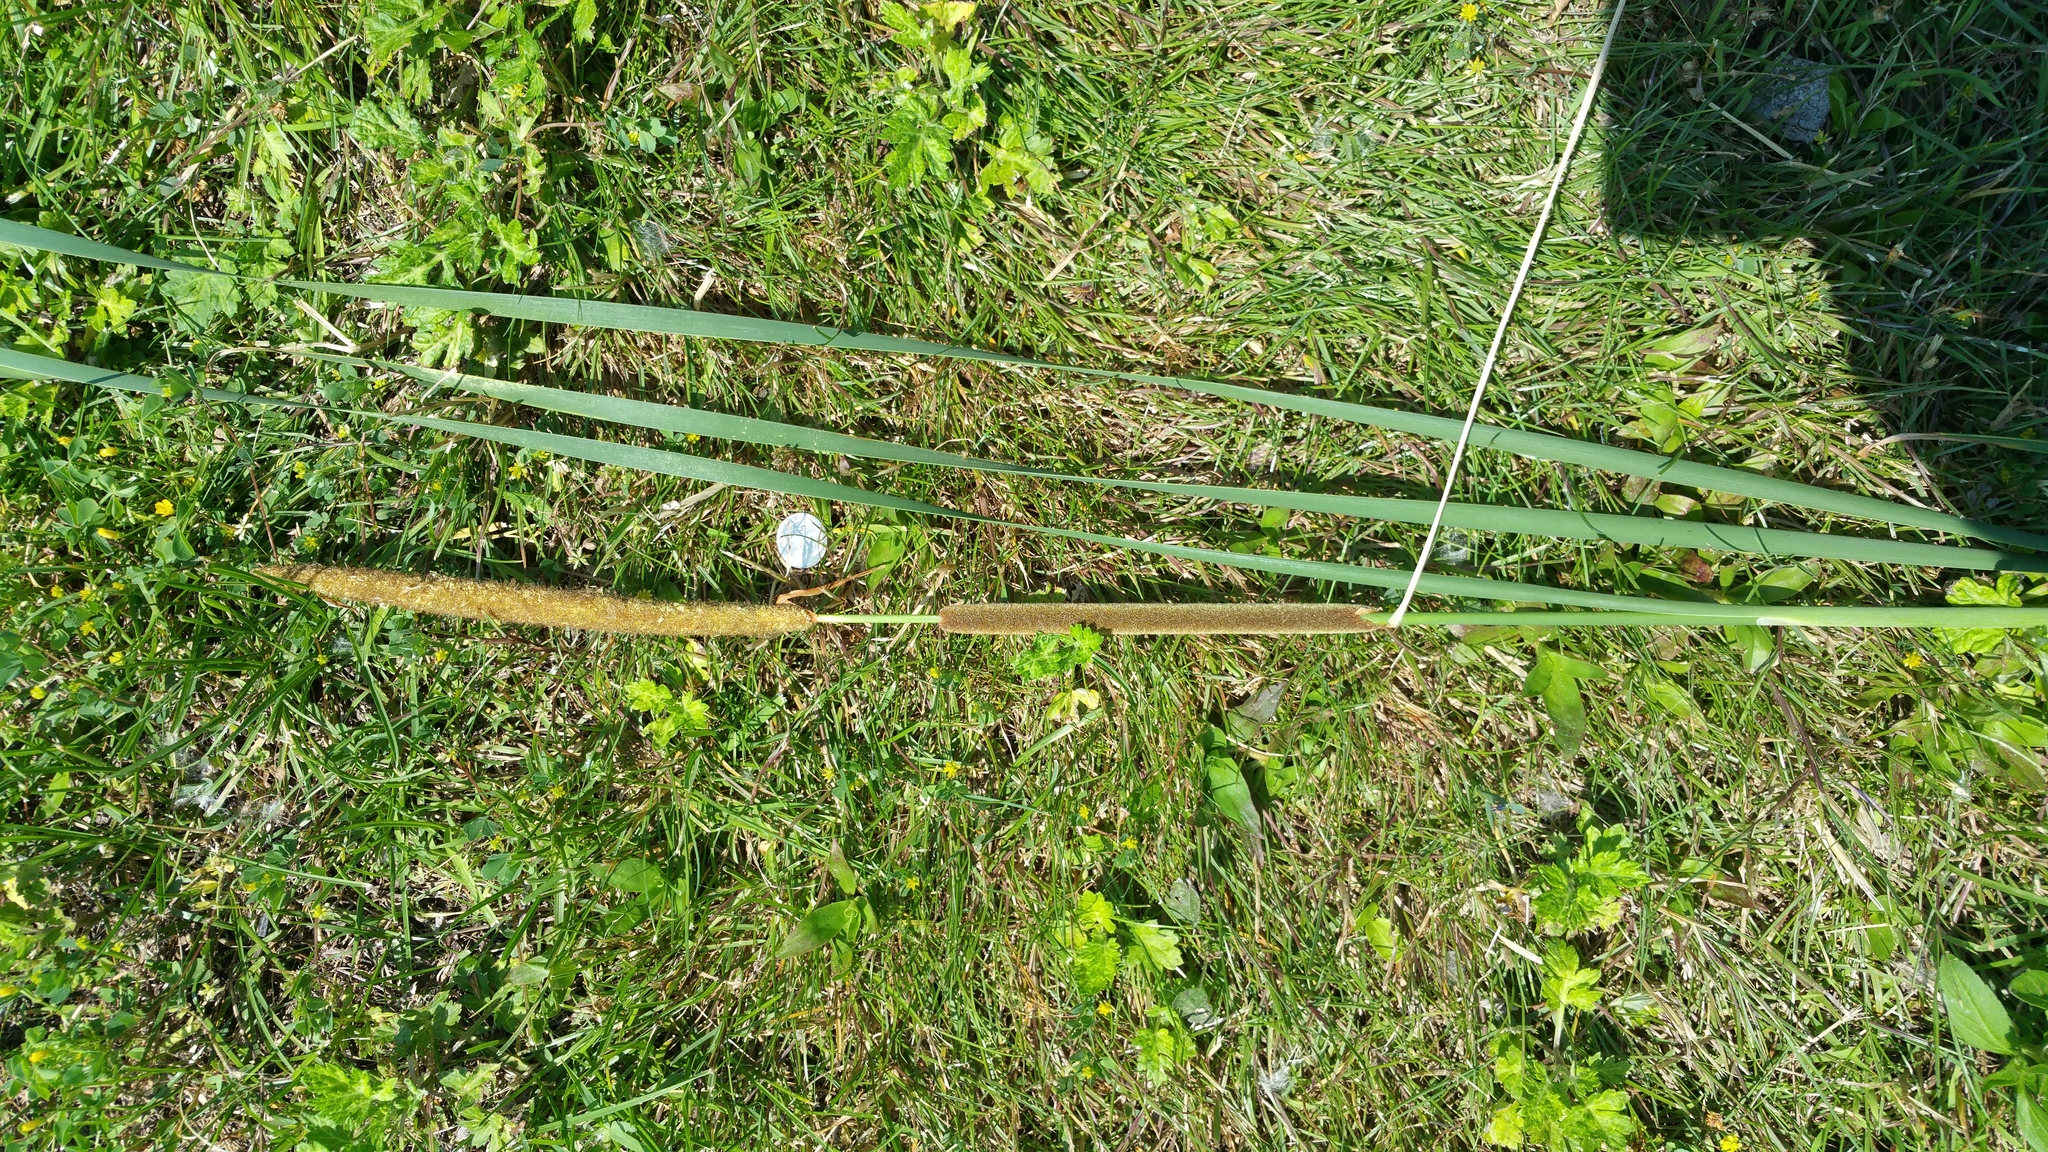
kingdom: Plantae
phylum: Tracheophyta
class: Liliopsida
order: Poales
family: Typhaceae
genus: Typha
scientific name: Typha angustifolia
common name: Lesser bulrush
